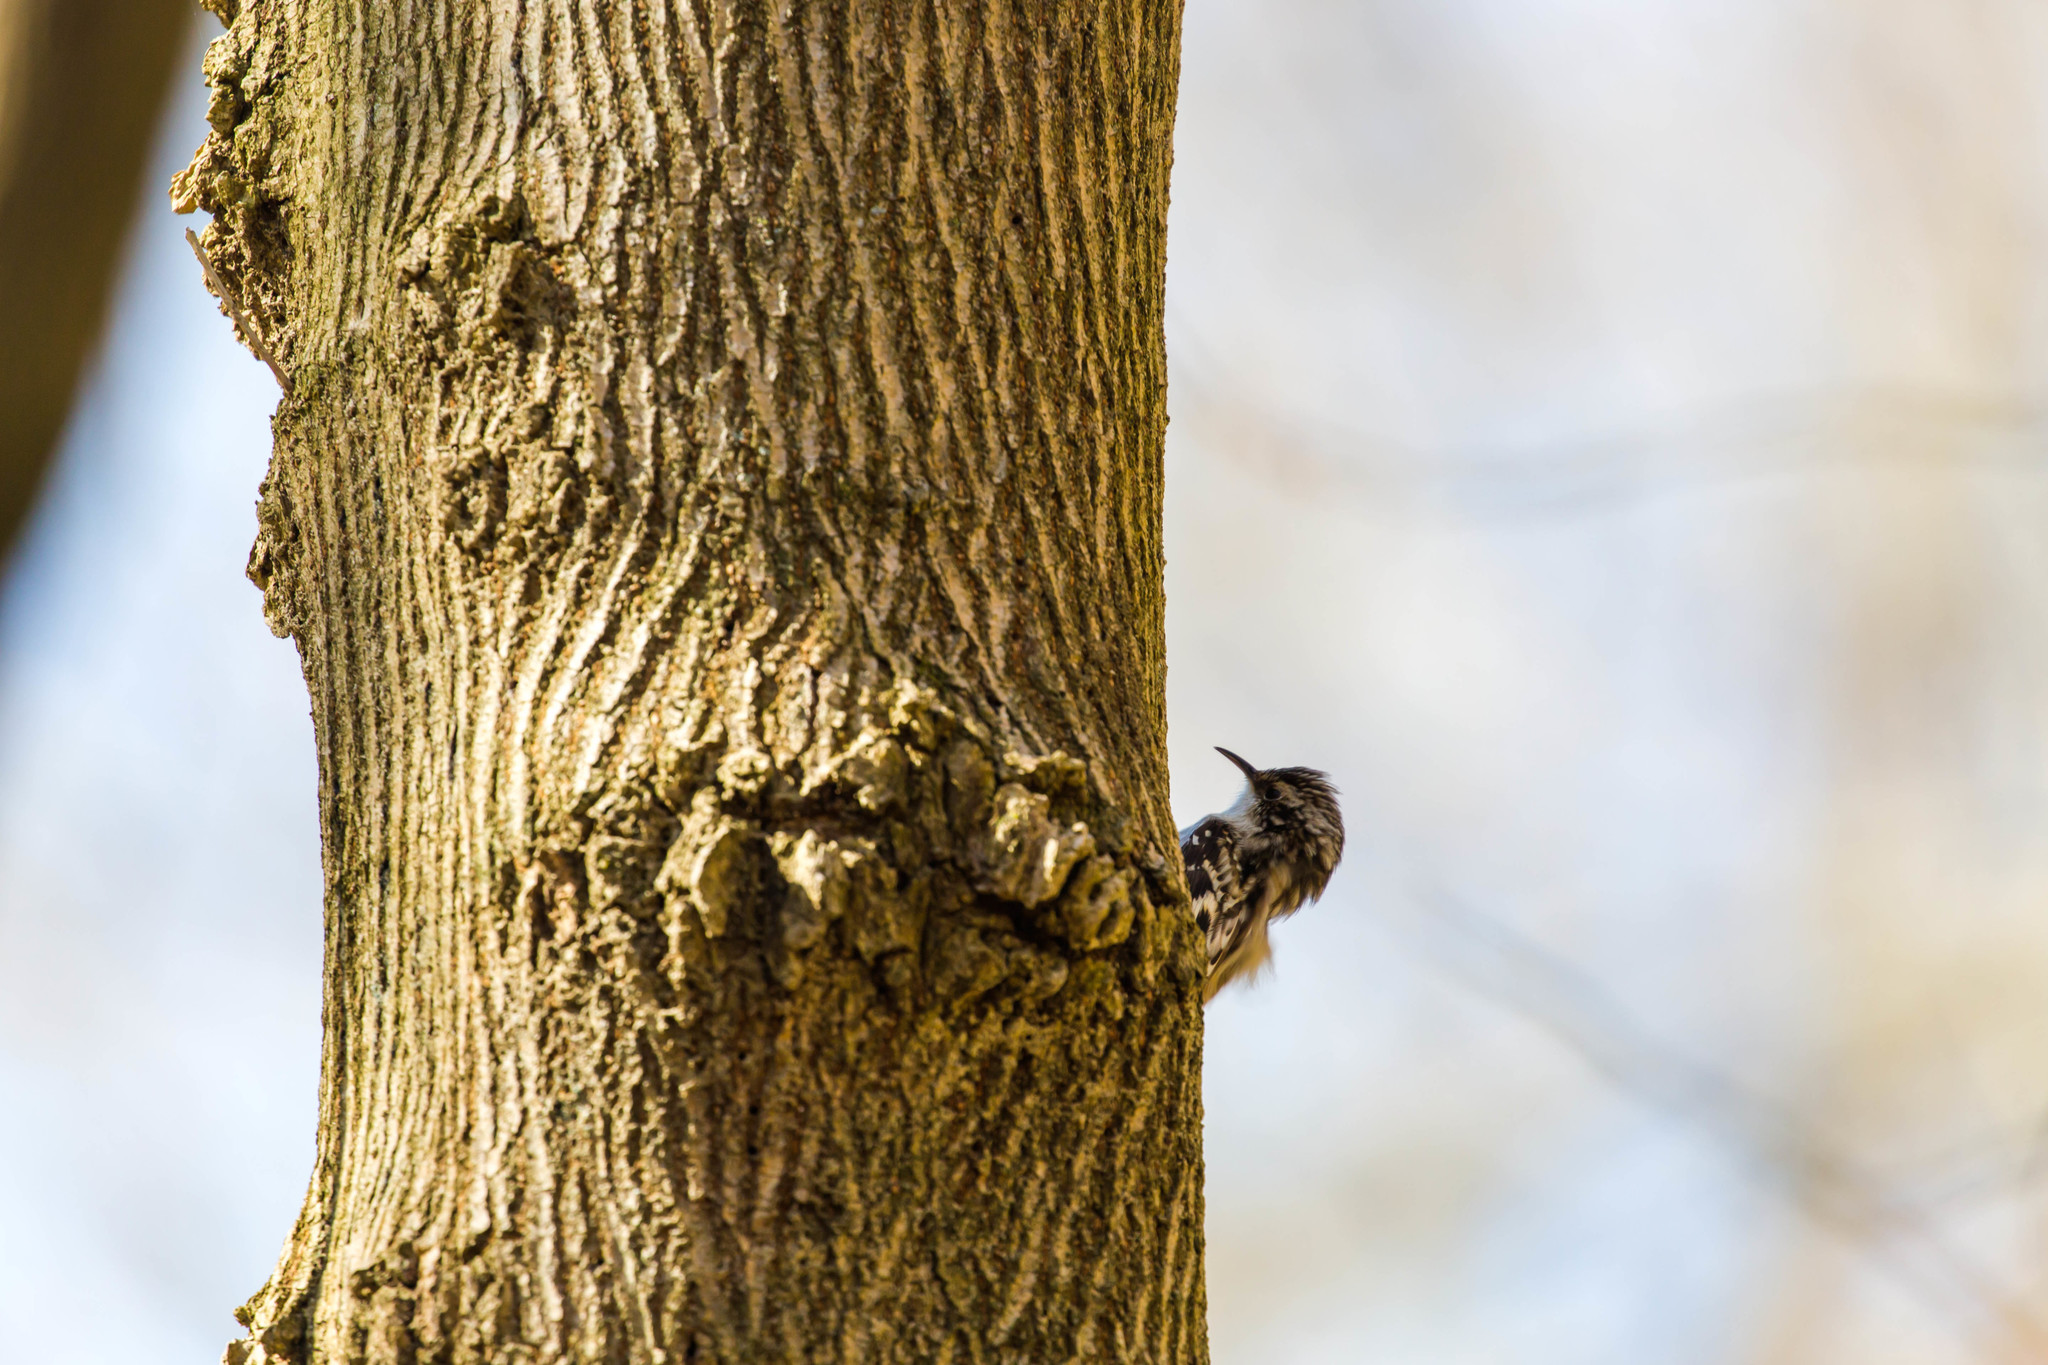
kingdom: Animalia
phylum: Chordata
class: Aves
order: Passeriformes
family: Certhiidae
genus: Certhia
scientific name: Certhia americana
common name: Brown creeper
